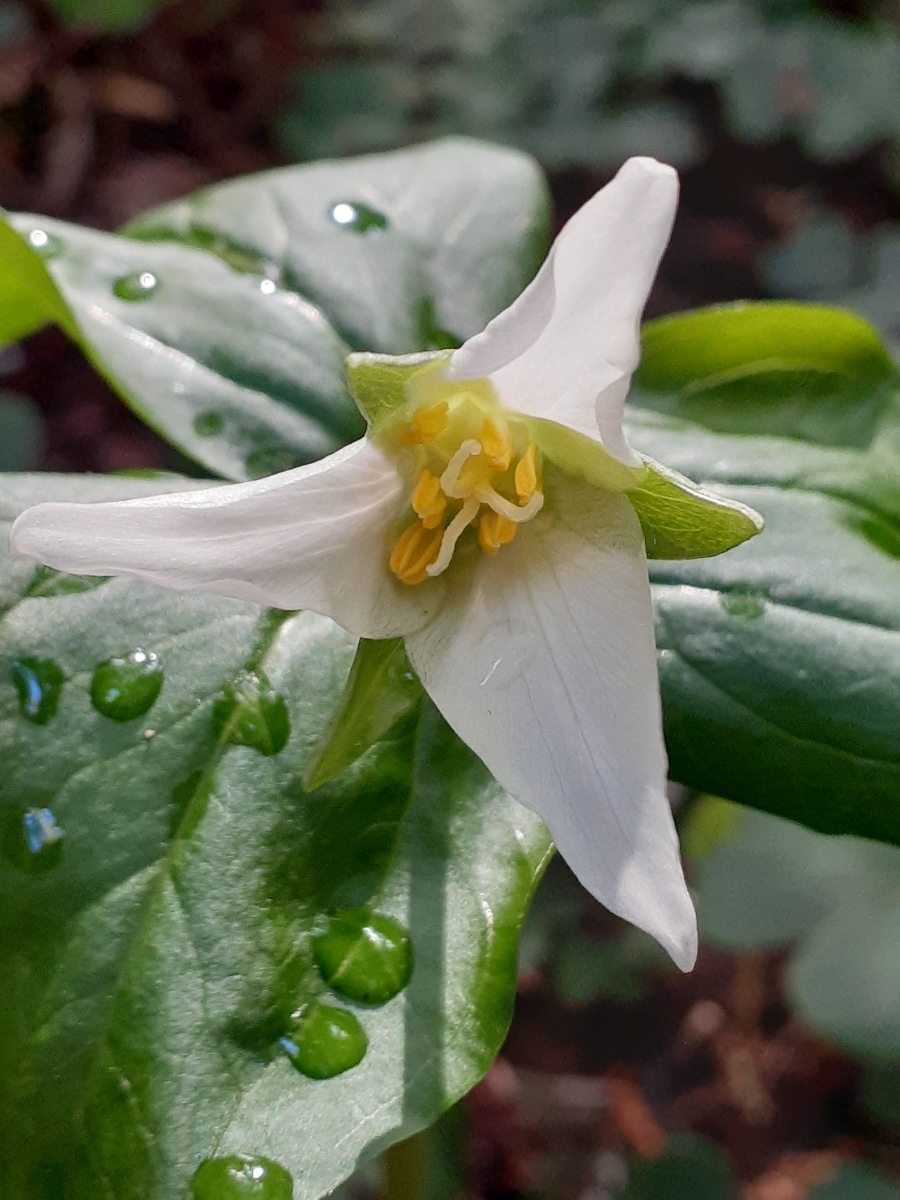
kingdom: Plantae
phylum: Tracheophyta
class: Liliopsida
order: Liliales
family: Melanthiaceae
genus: Trillium
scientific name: Trillium ovatum
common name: Pacific trillium
